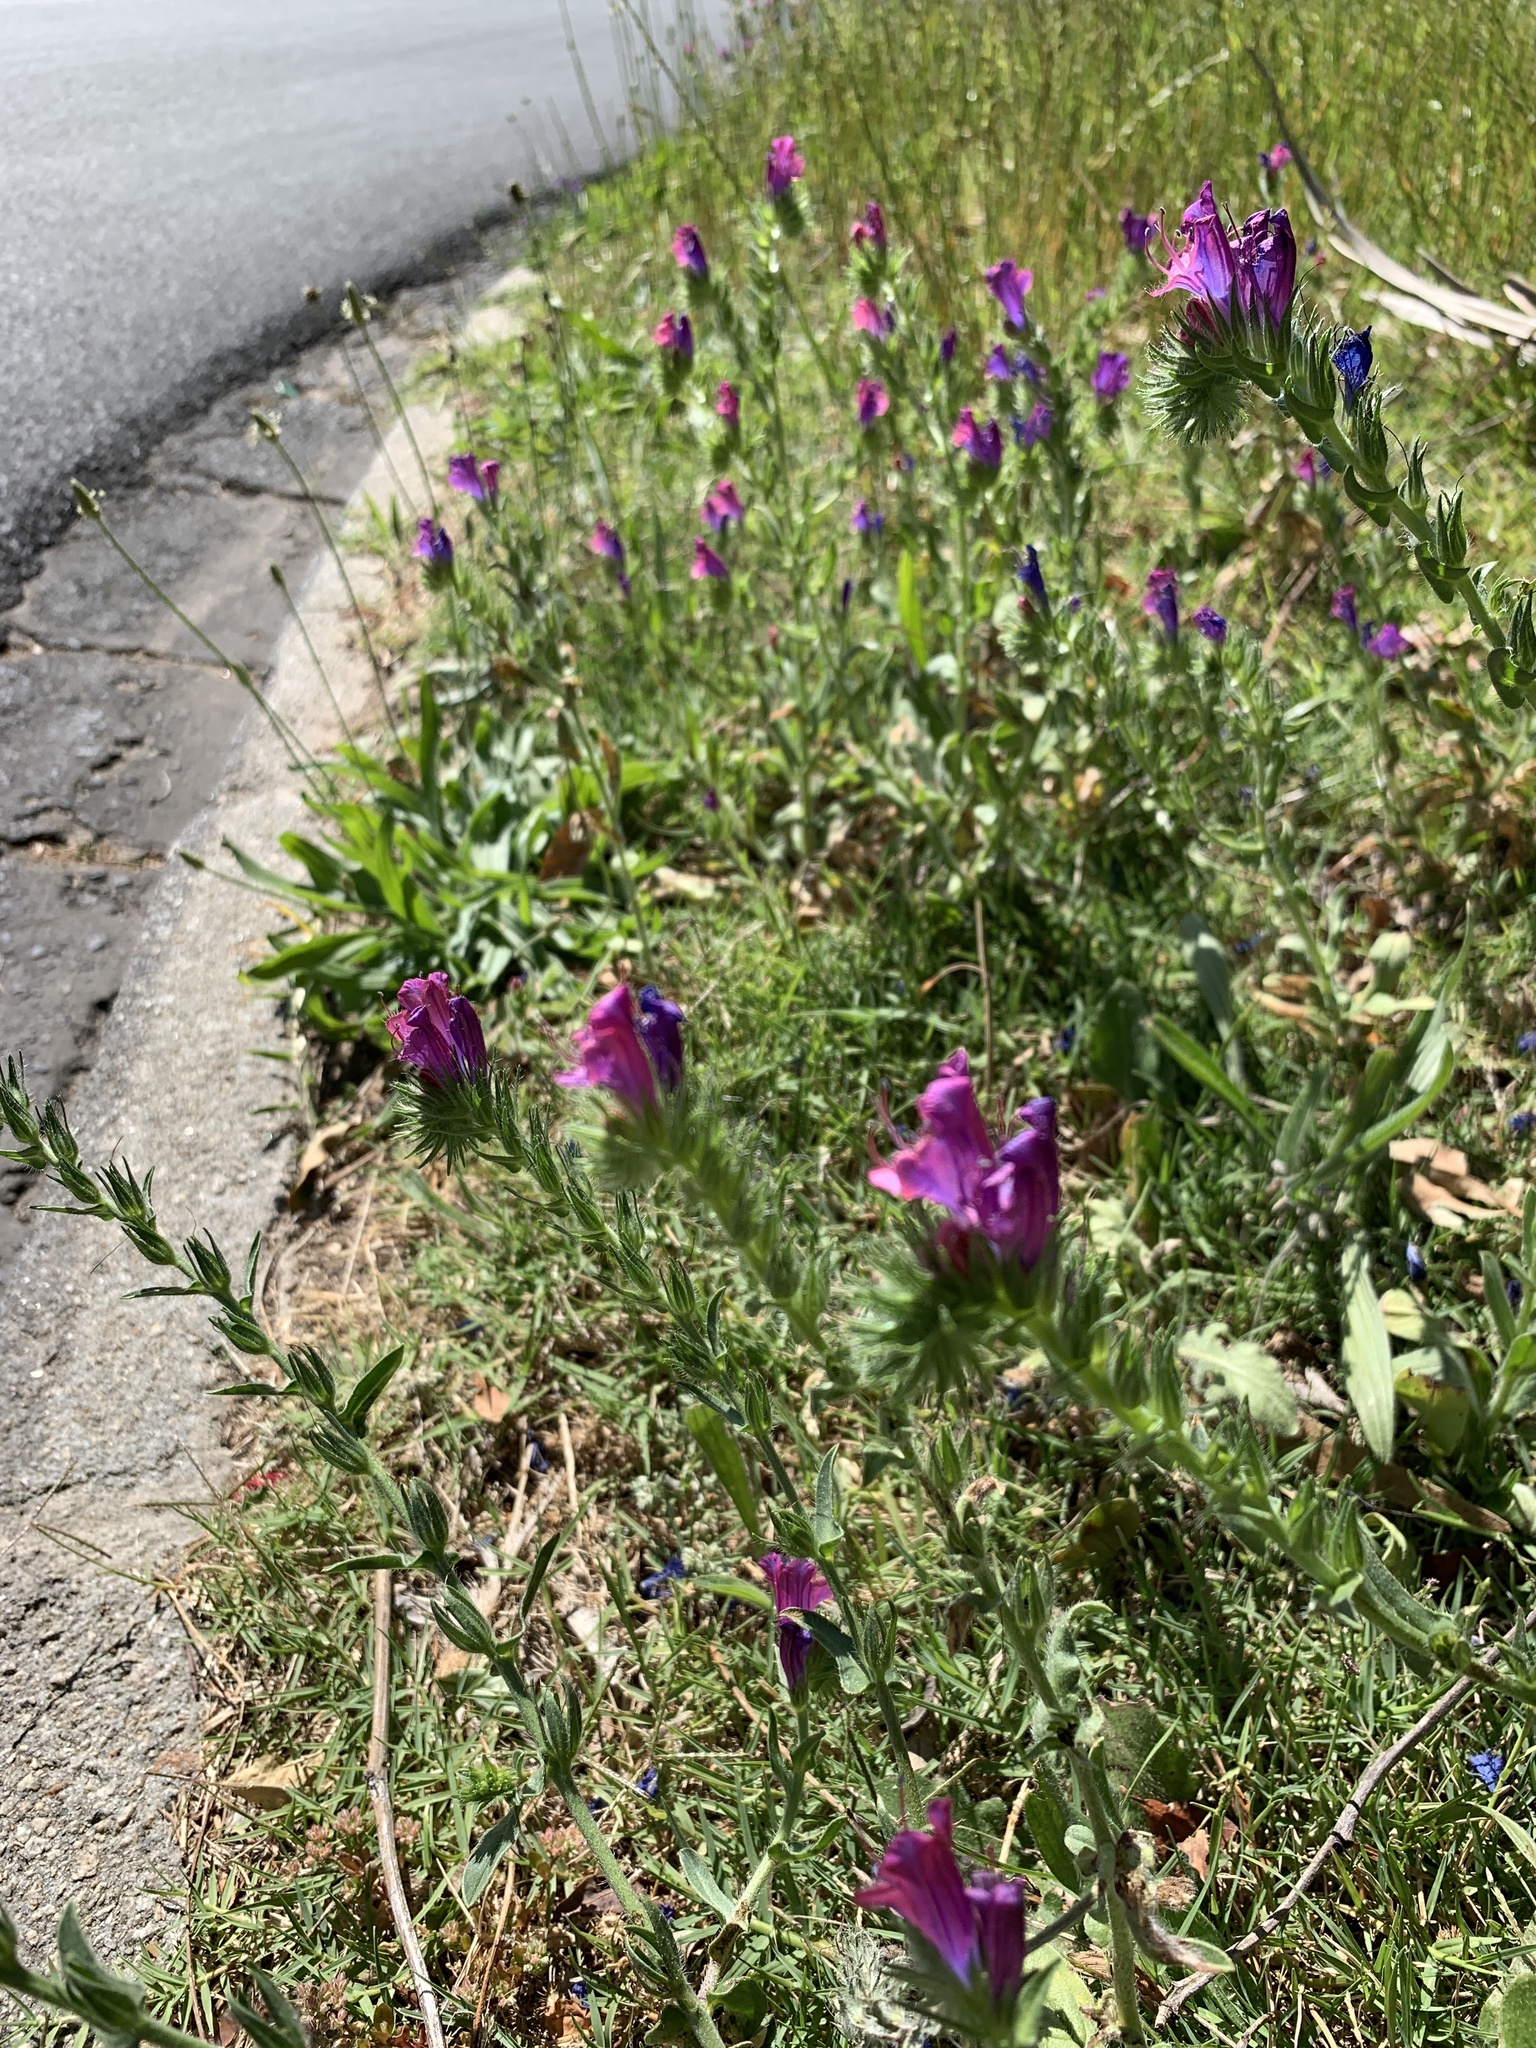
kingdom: Plantae
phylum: Tracheophyta
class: Magnoliopsida
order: Boraginales
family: Boraginaceae
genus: Echium
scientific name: Echium plantagineum
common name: Purple viper's-bugloss
